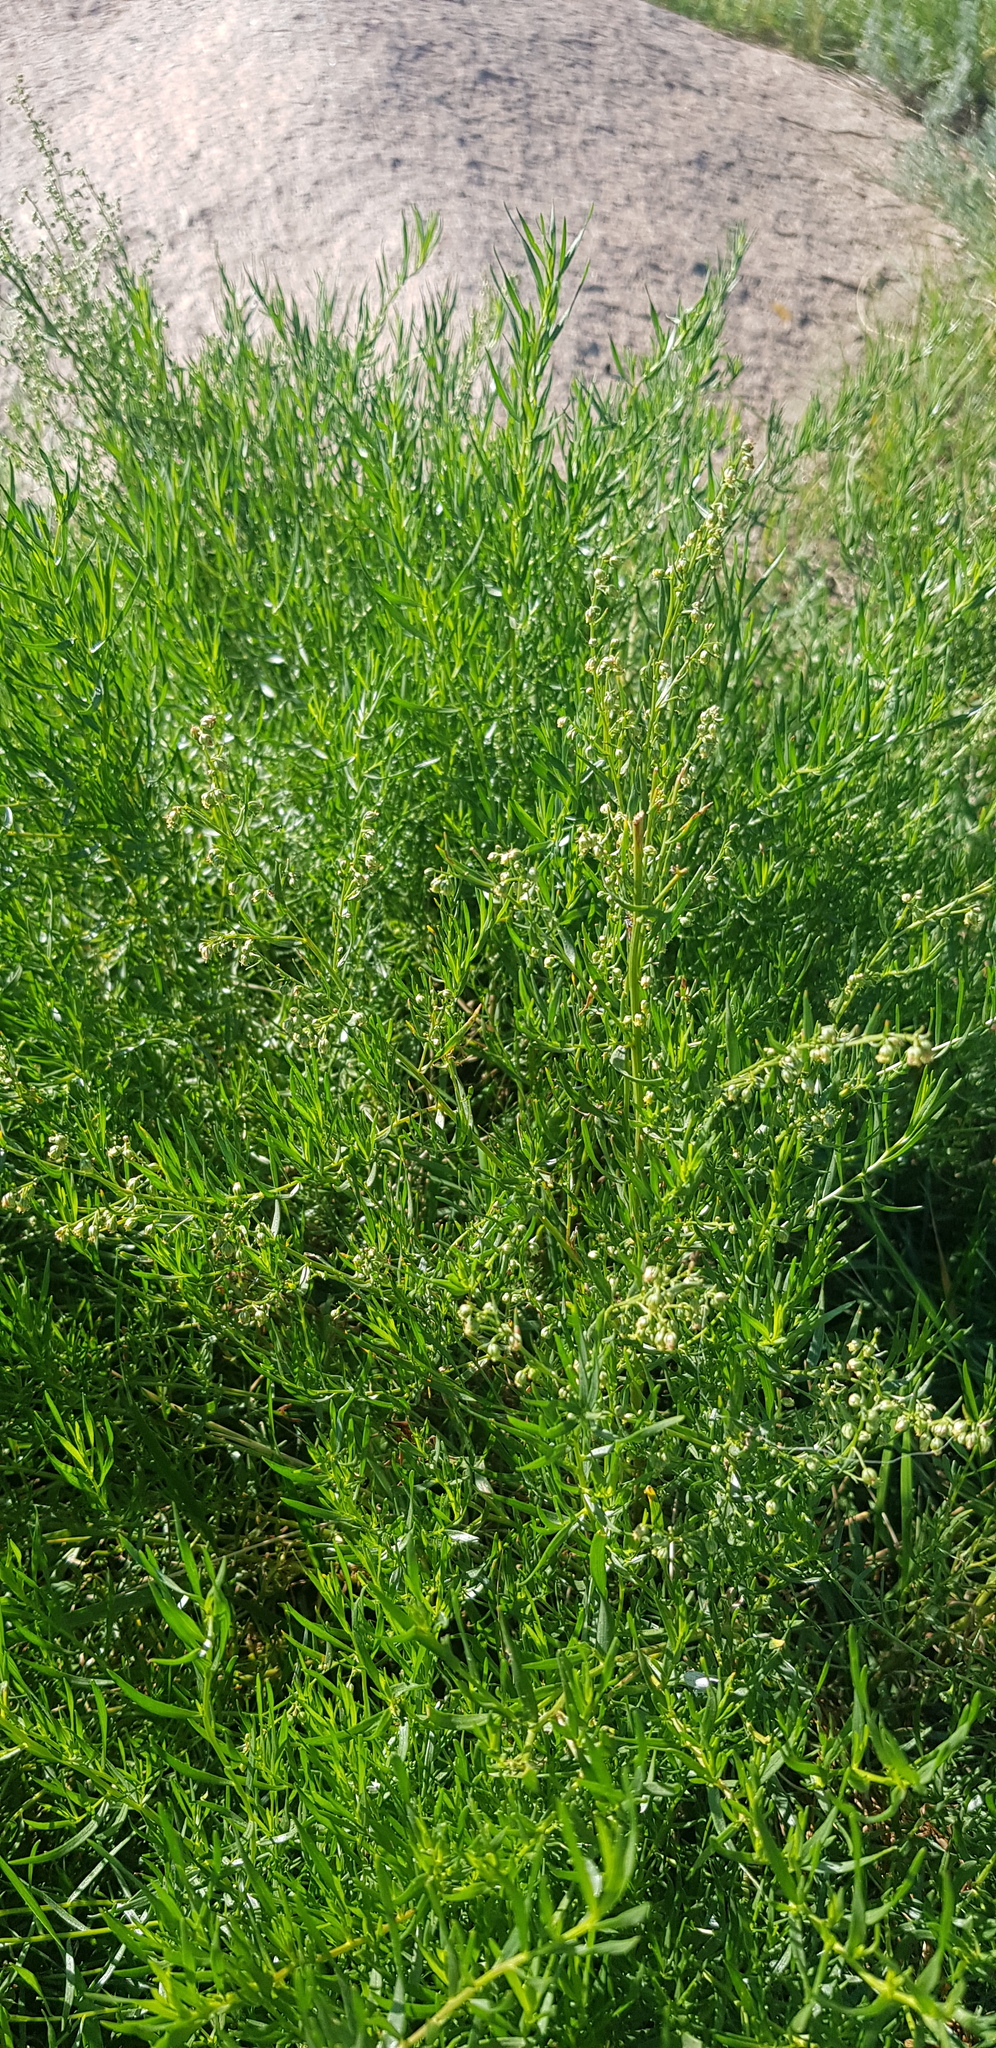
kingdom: Plantae
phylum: Tracheophyta
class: Magnoliopsida
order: Asterales
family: Asteraceae
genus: Artemisia
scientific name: Artemisia dracunculus
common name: Tarragon
